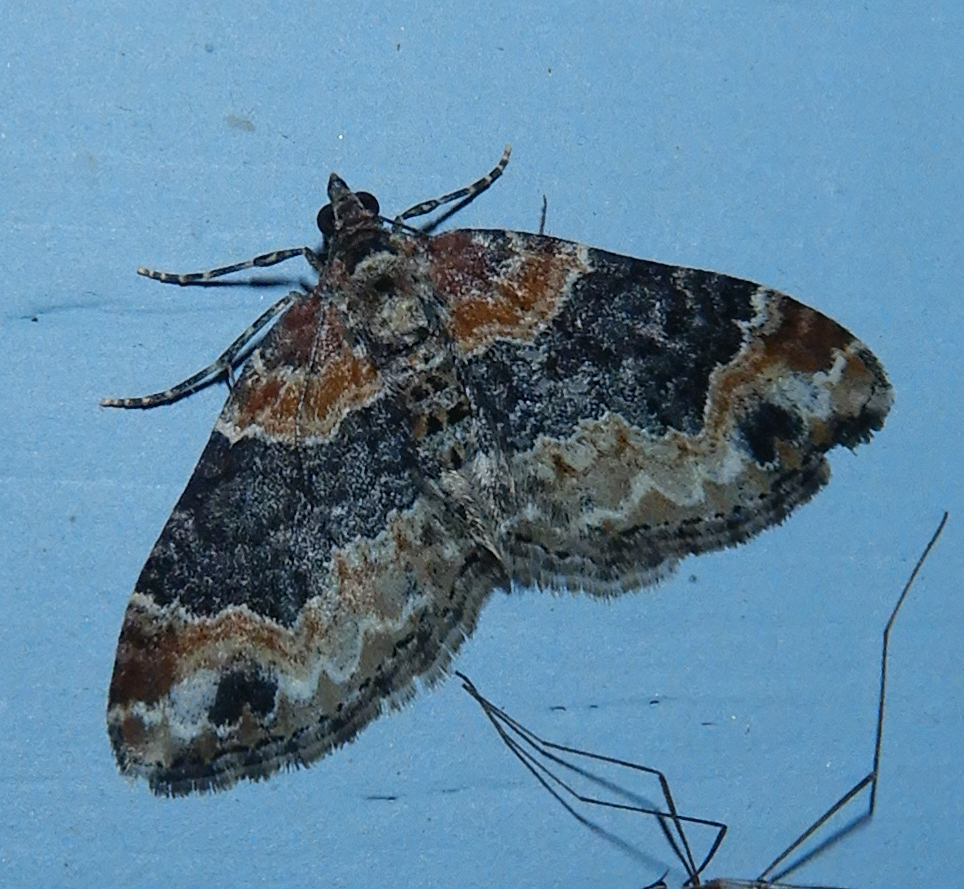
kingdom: Animalia
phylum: Arthropoda
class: Insecta
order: Lepidoptera
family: Geometridae
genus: Xanthorhoe
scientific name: Xanthorhoe ferrugata
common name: Dark-barred twin-spot carpet
